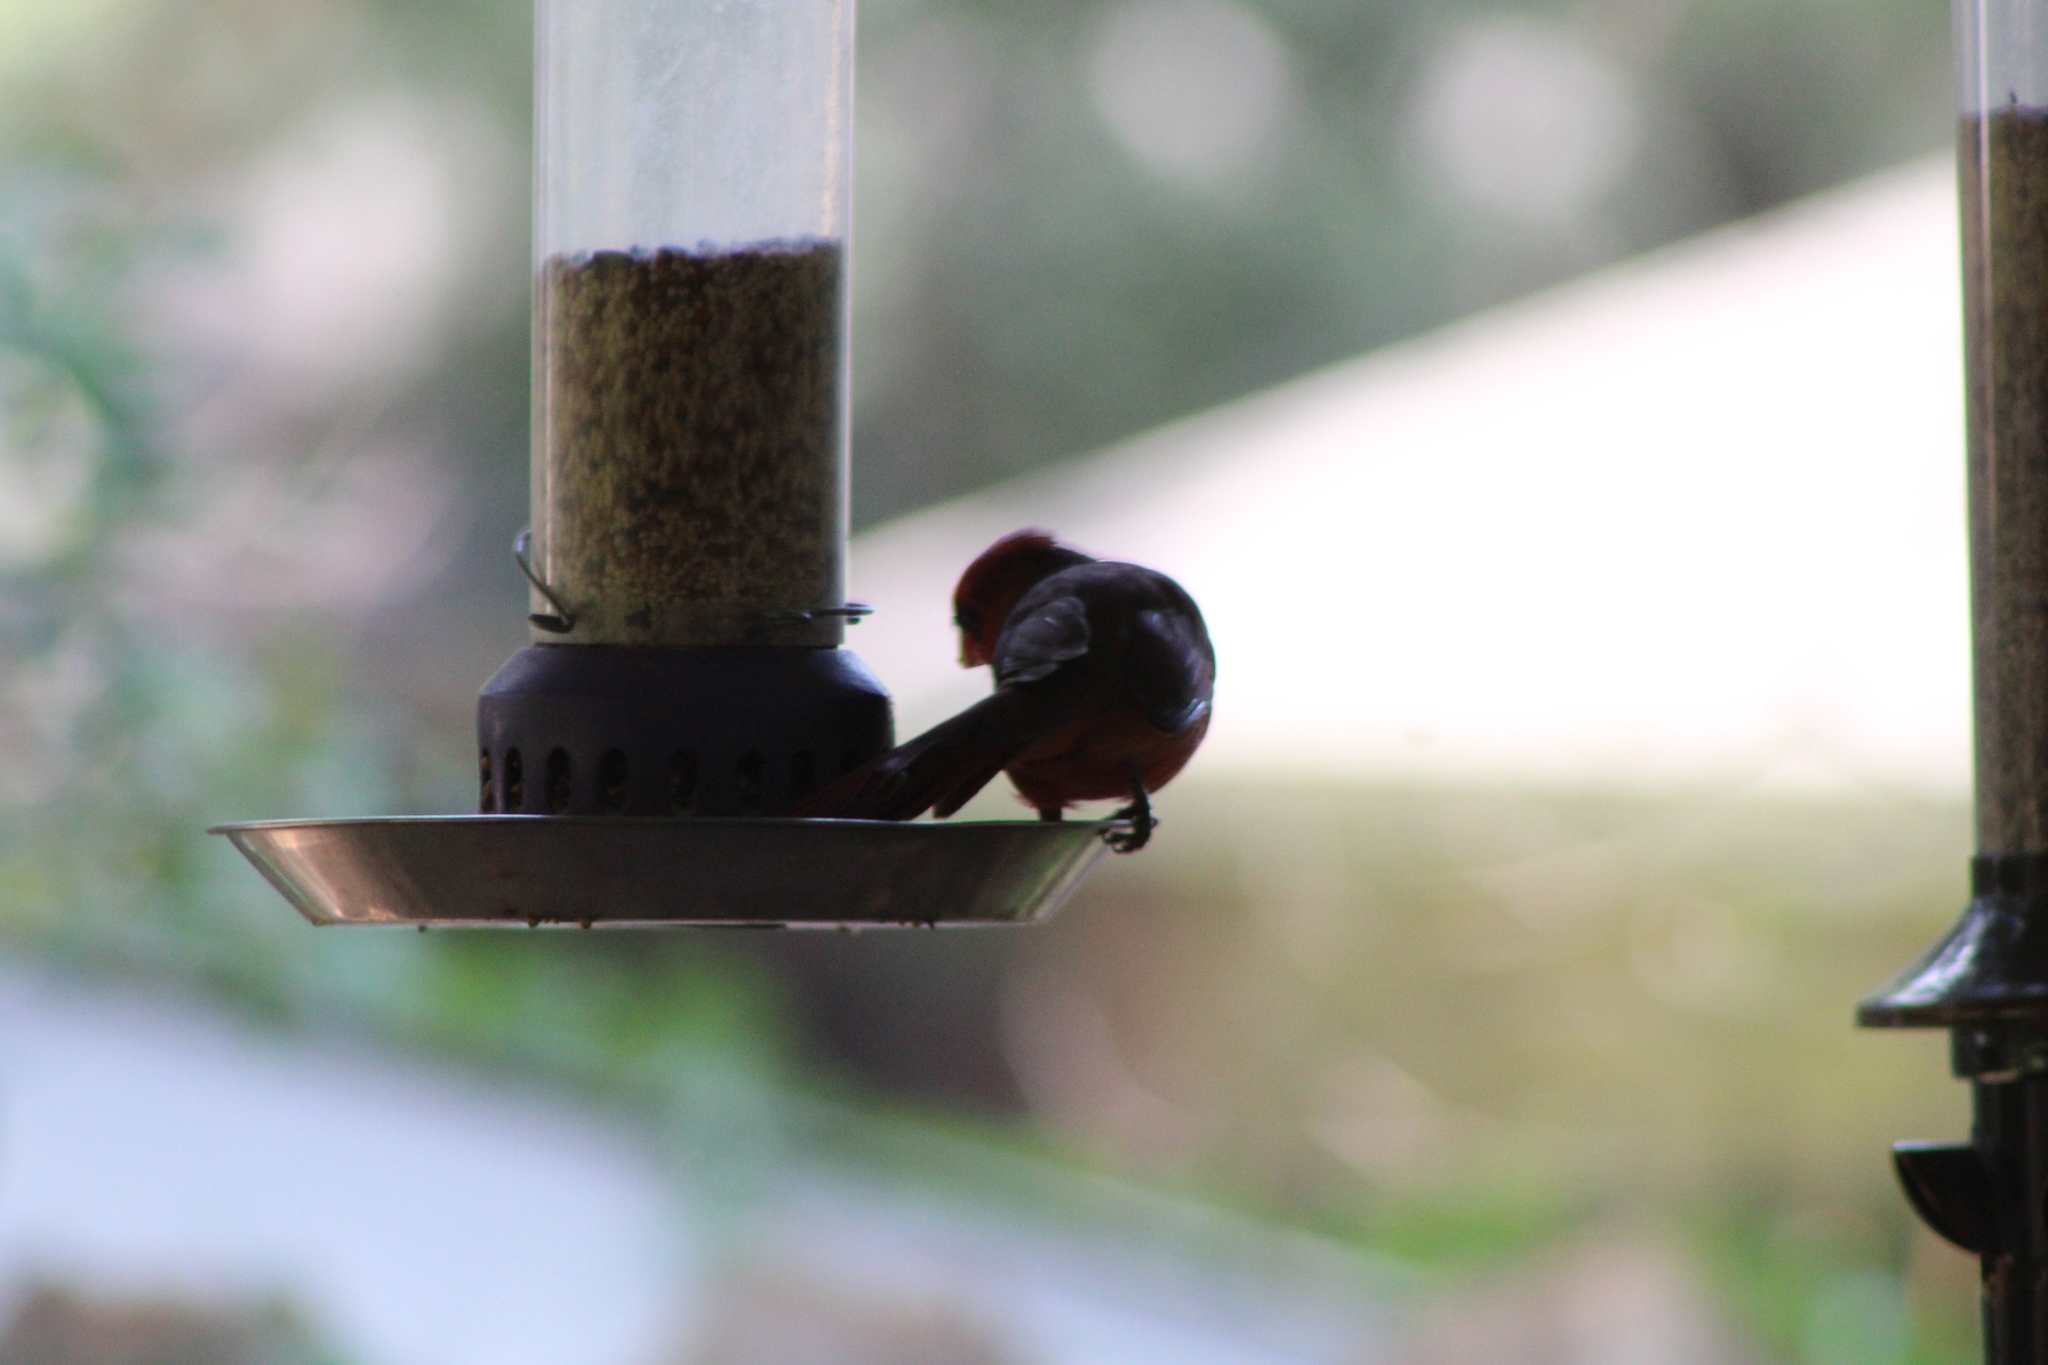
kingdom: Animalia
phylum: Chordata
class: Aves
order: Passeriformes
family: Cardinalidae
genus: Cardinalis
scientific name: Cardinalis cardinalis
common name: Northern cardinal
